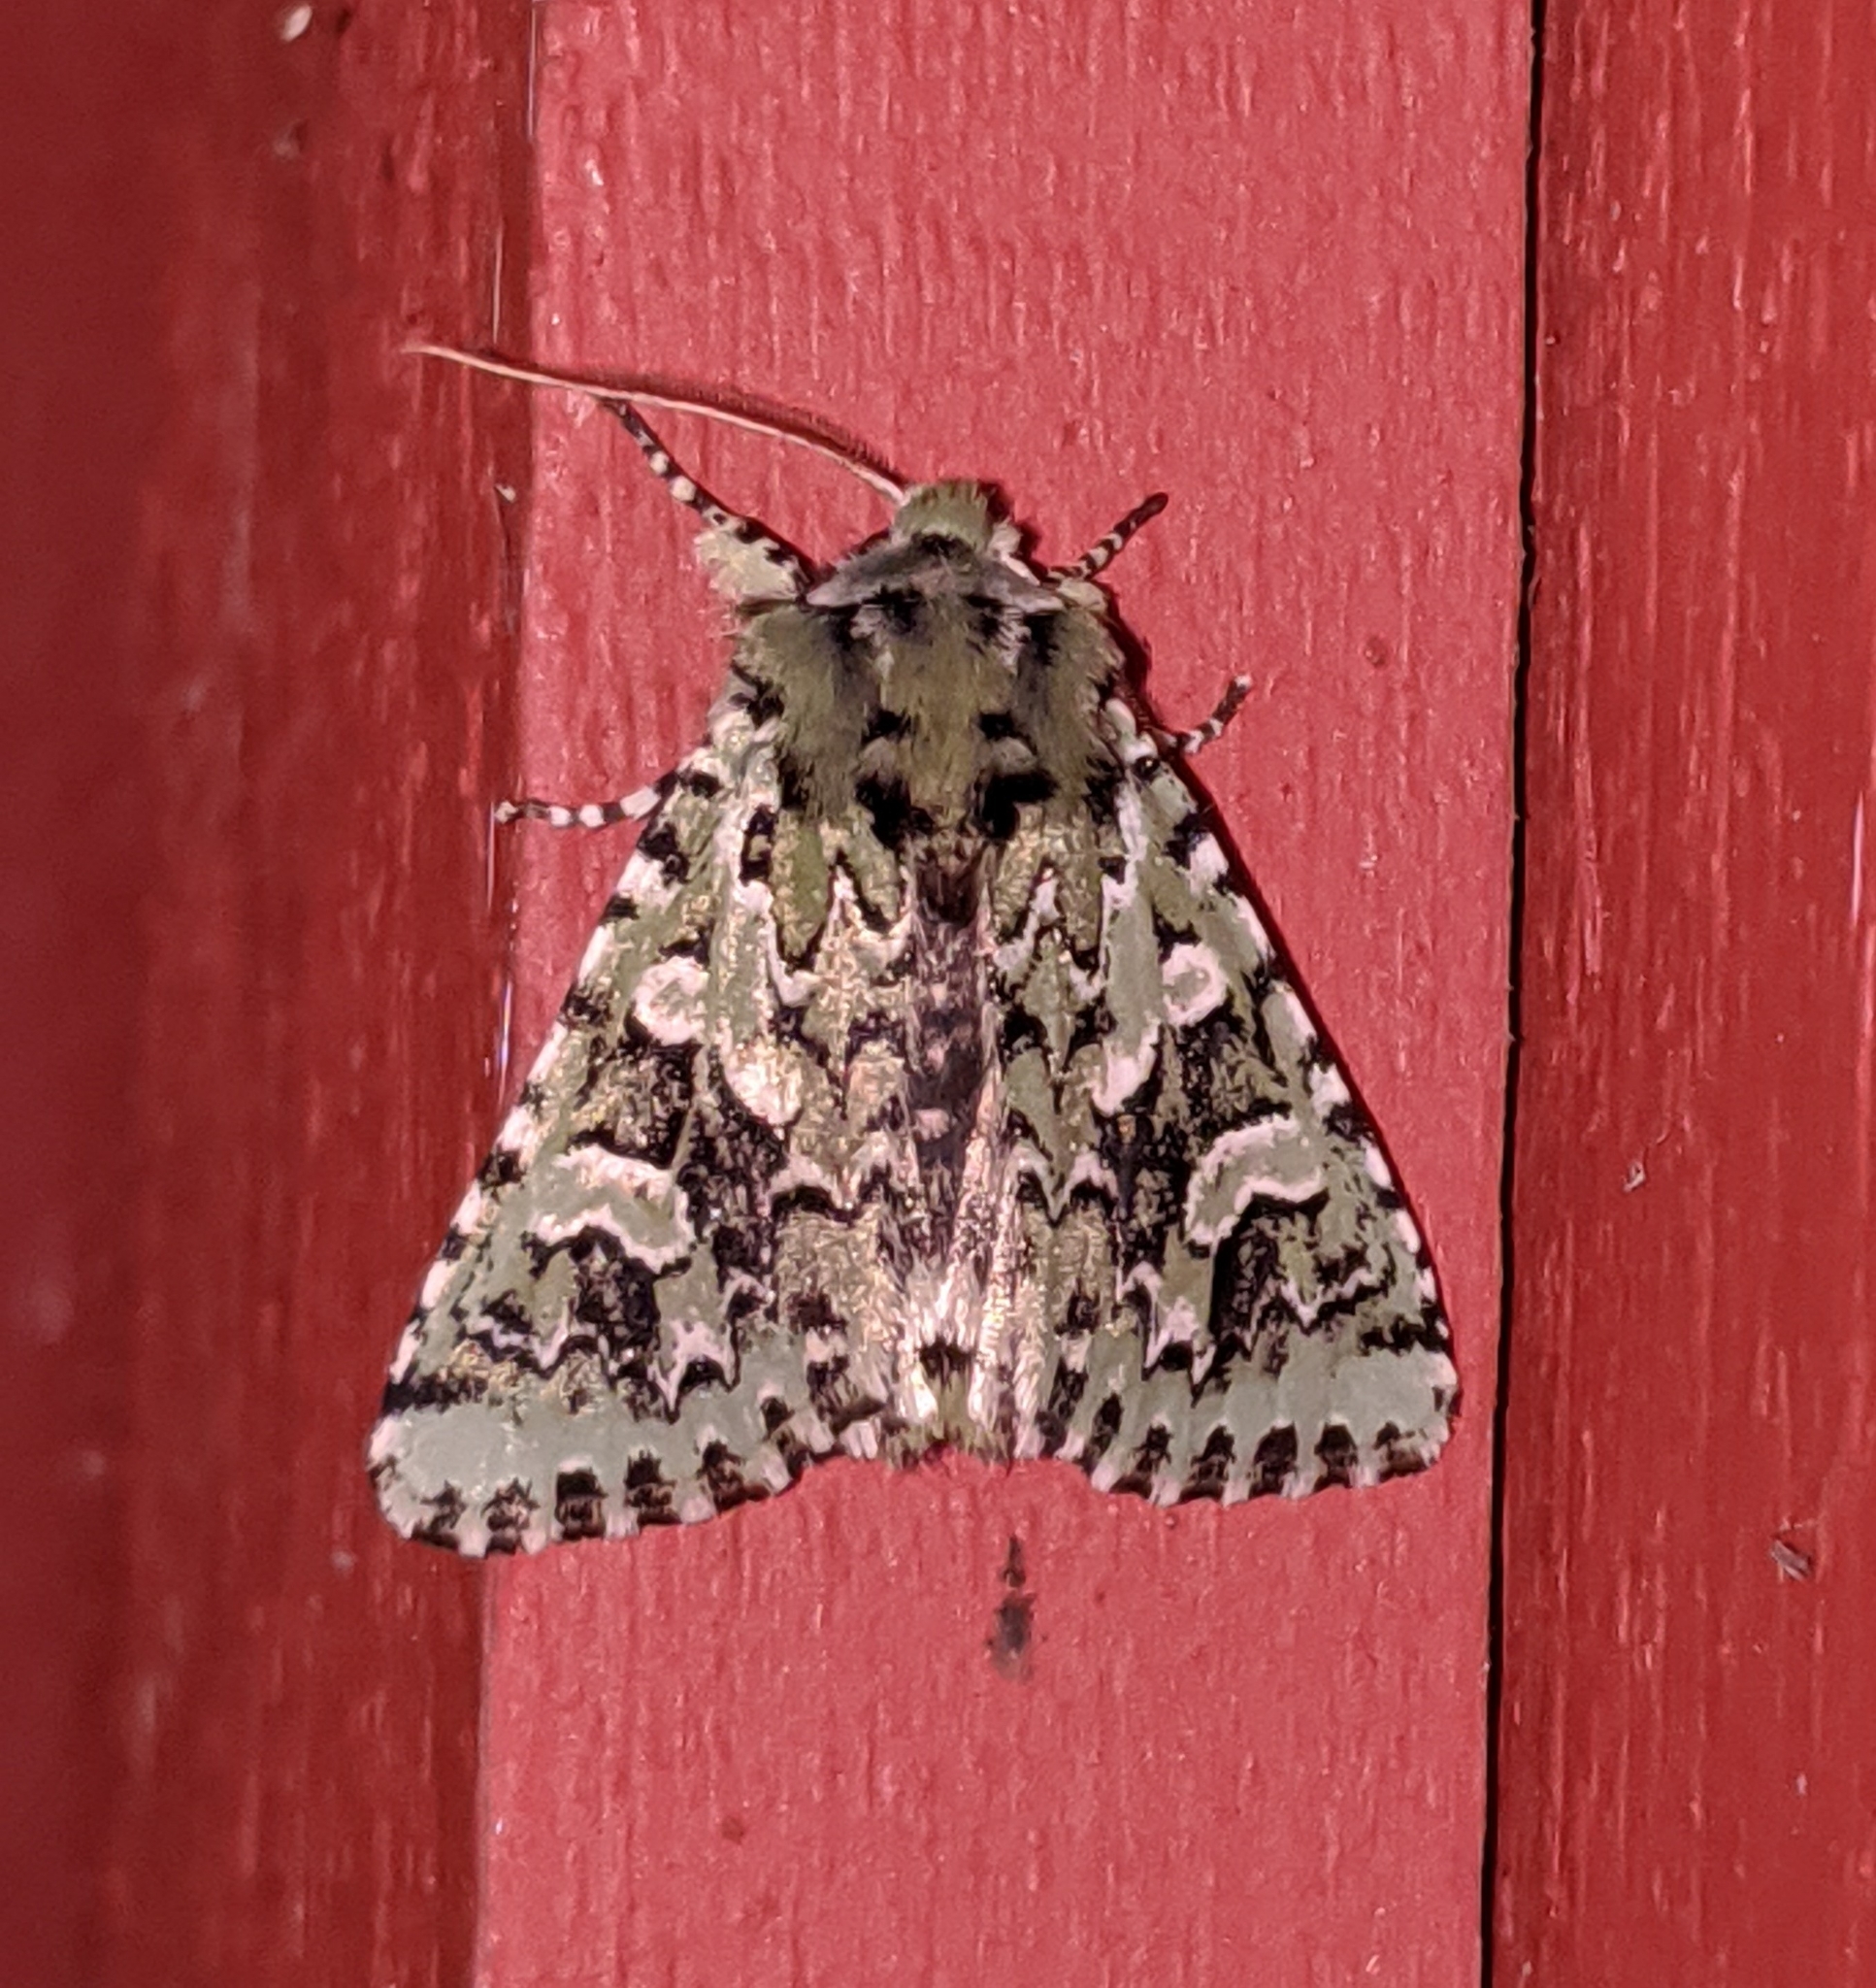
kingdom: Animalia
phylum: Arthropoda
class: Insecta
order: Lepidoptera
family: Noctuidae
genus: Feralia
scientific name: Feralia comstocki
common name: Comstock's sallow
